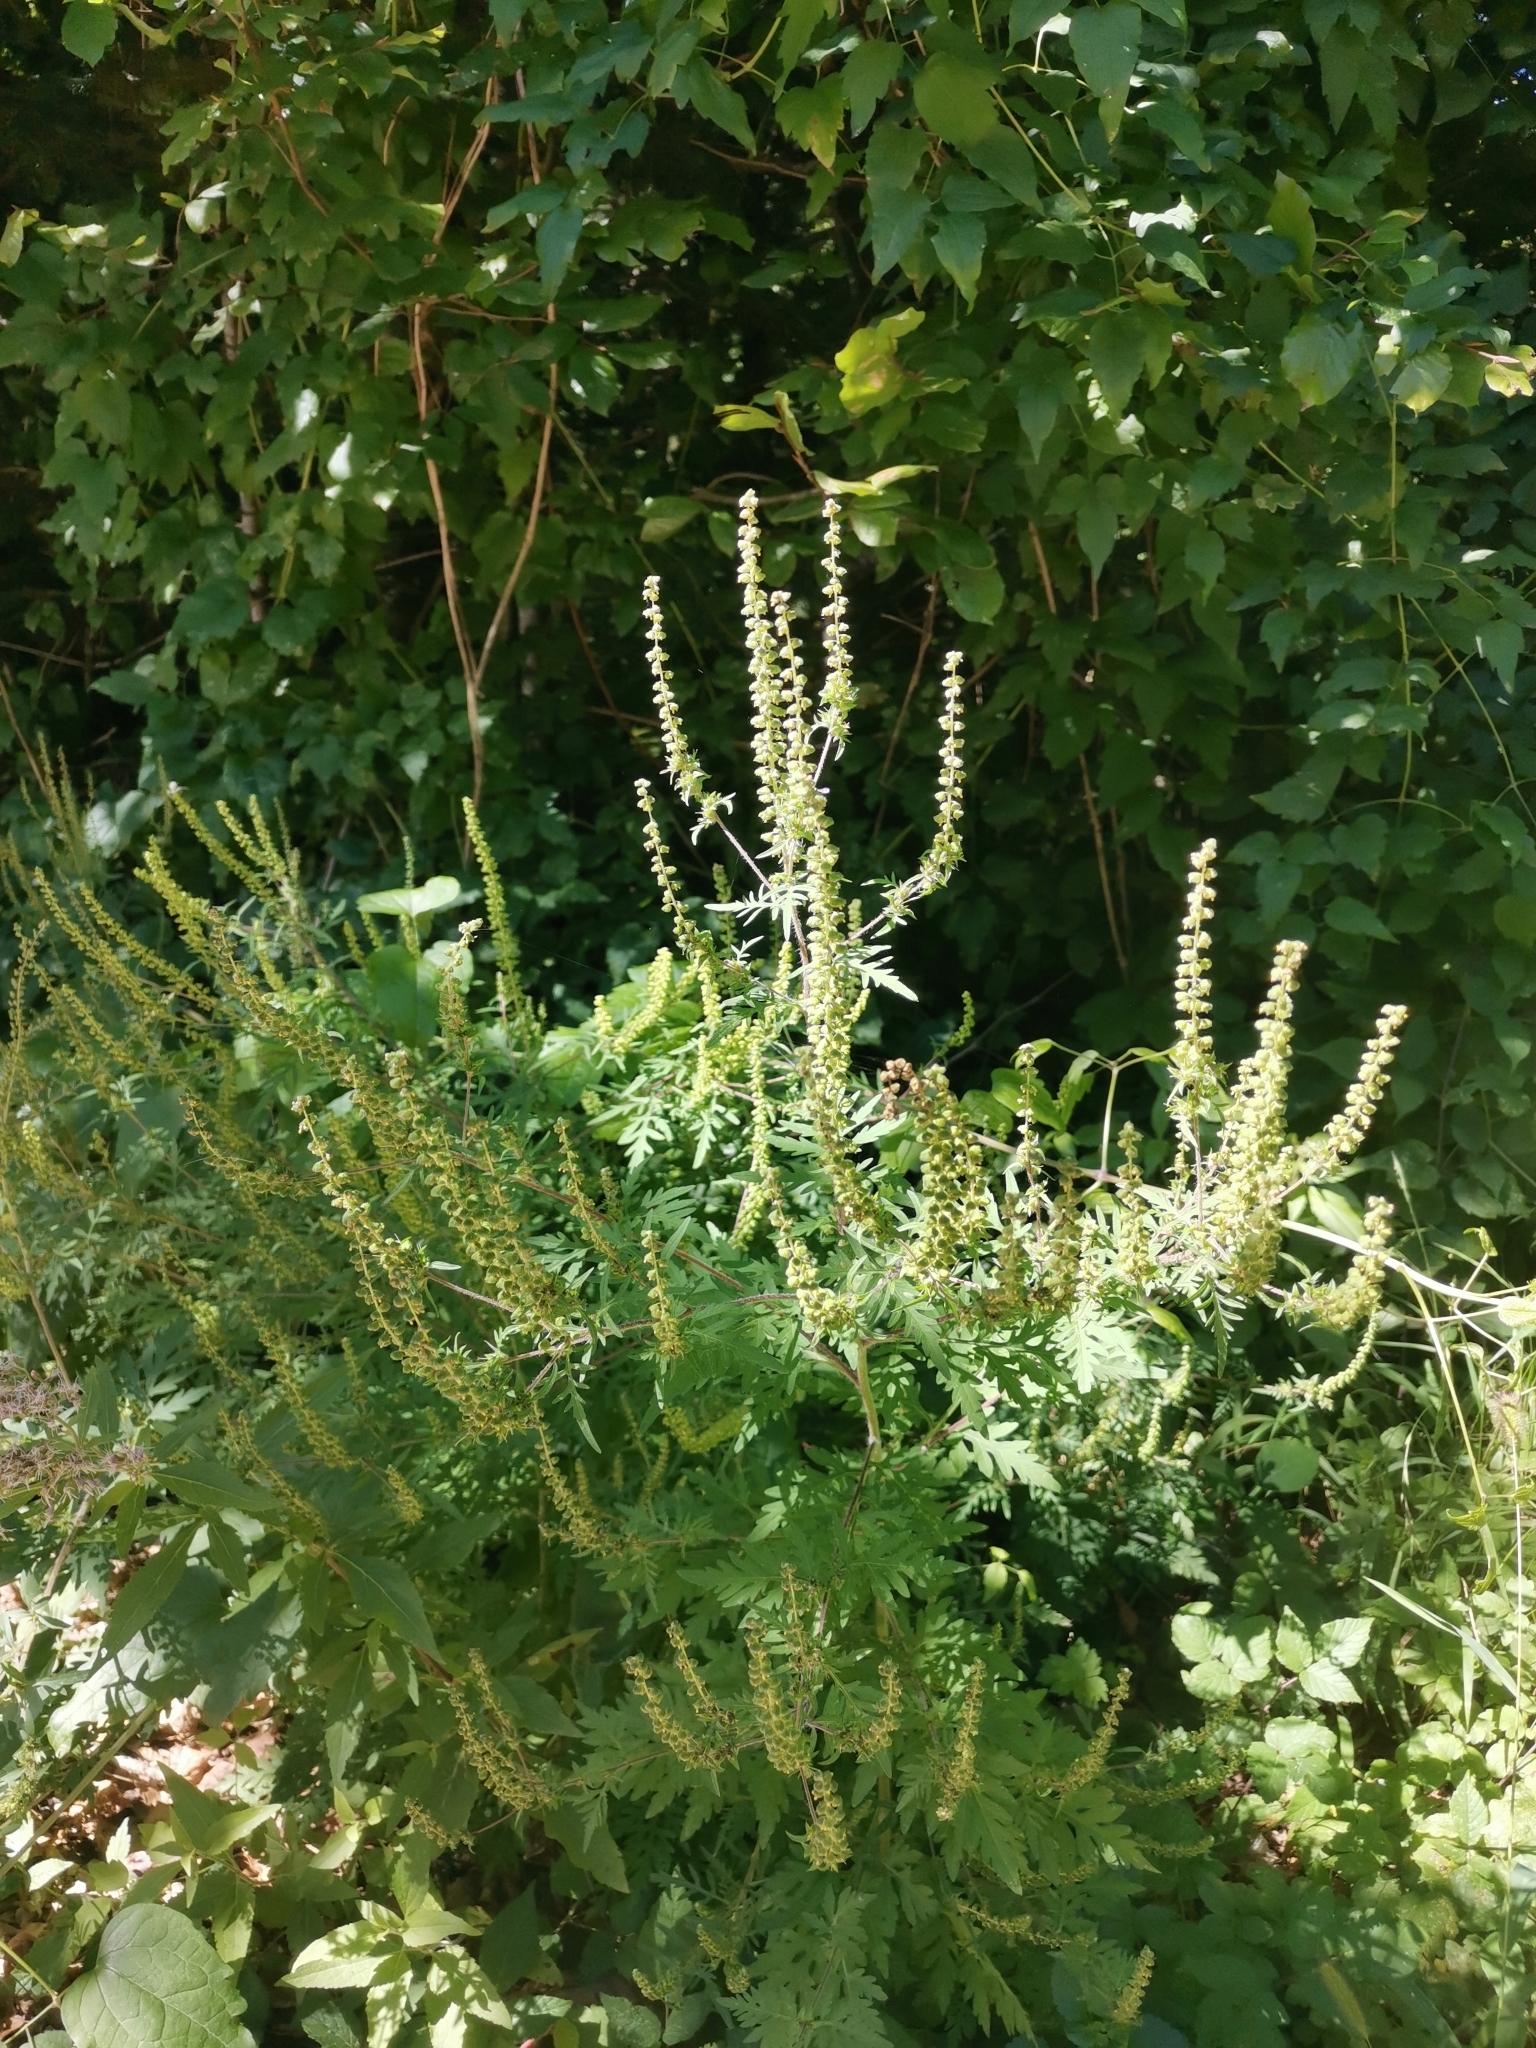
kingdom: Plantae
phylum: Tracheophyta
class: Magnoliopsida
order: Asterales
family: Asteraceae
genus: Ambrosia
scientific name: Ambrosia artemisiifolia
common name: Annual ragweed
